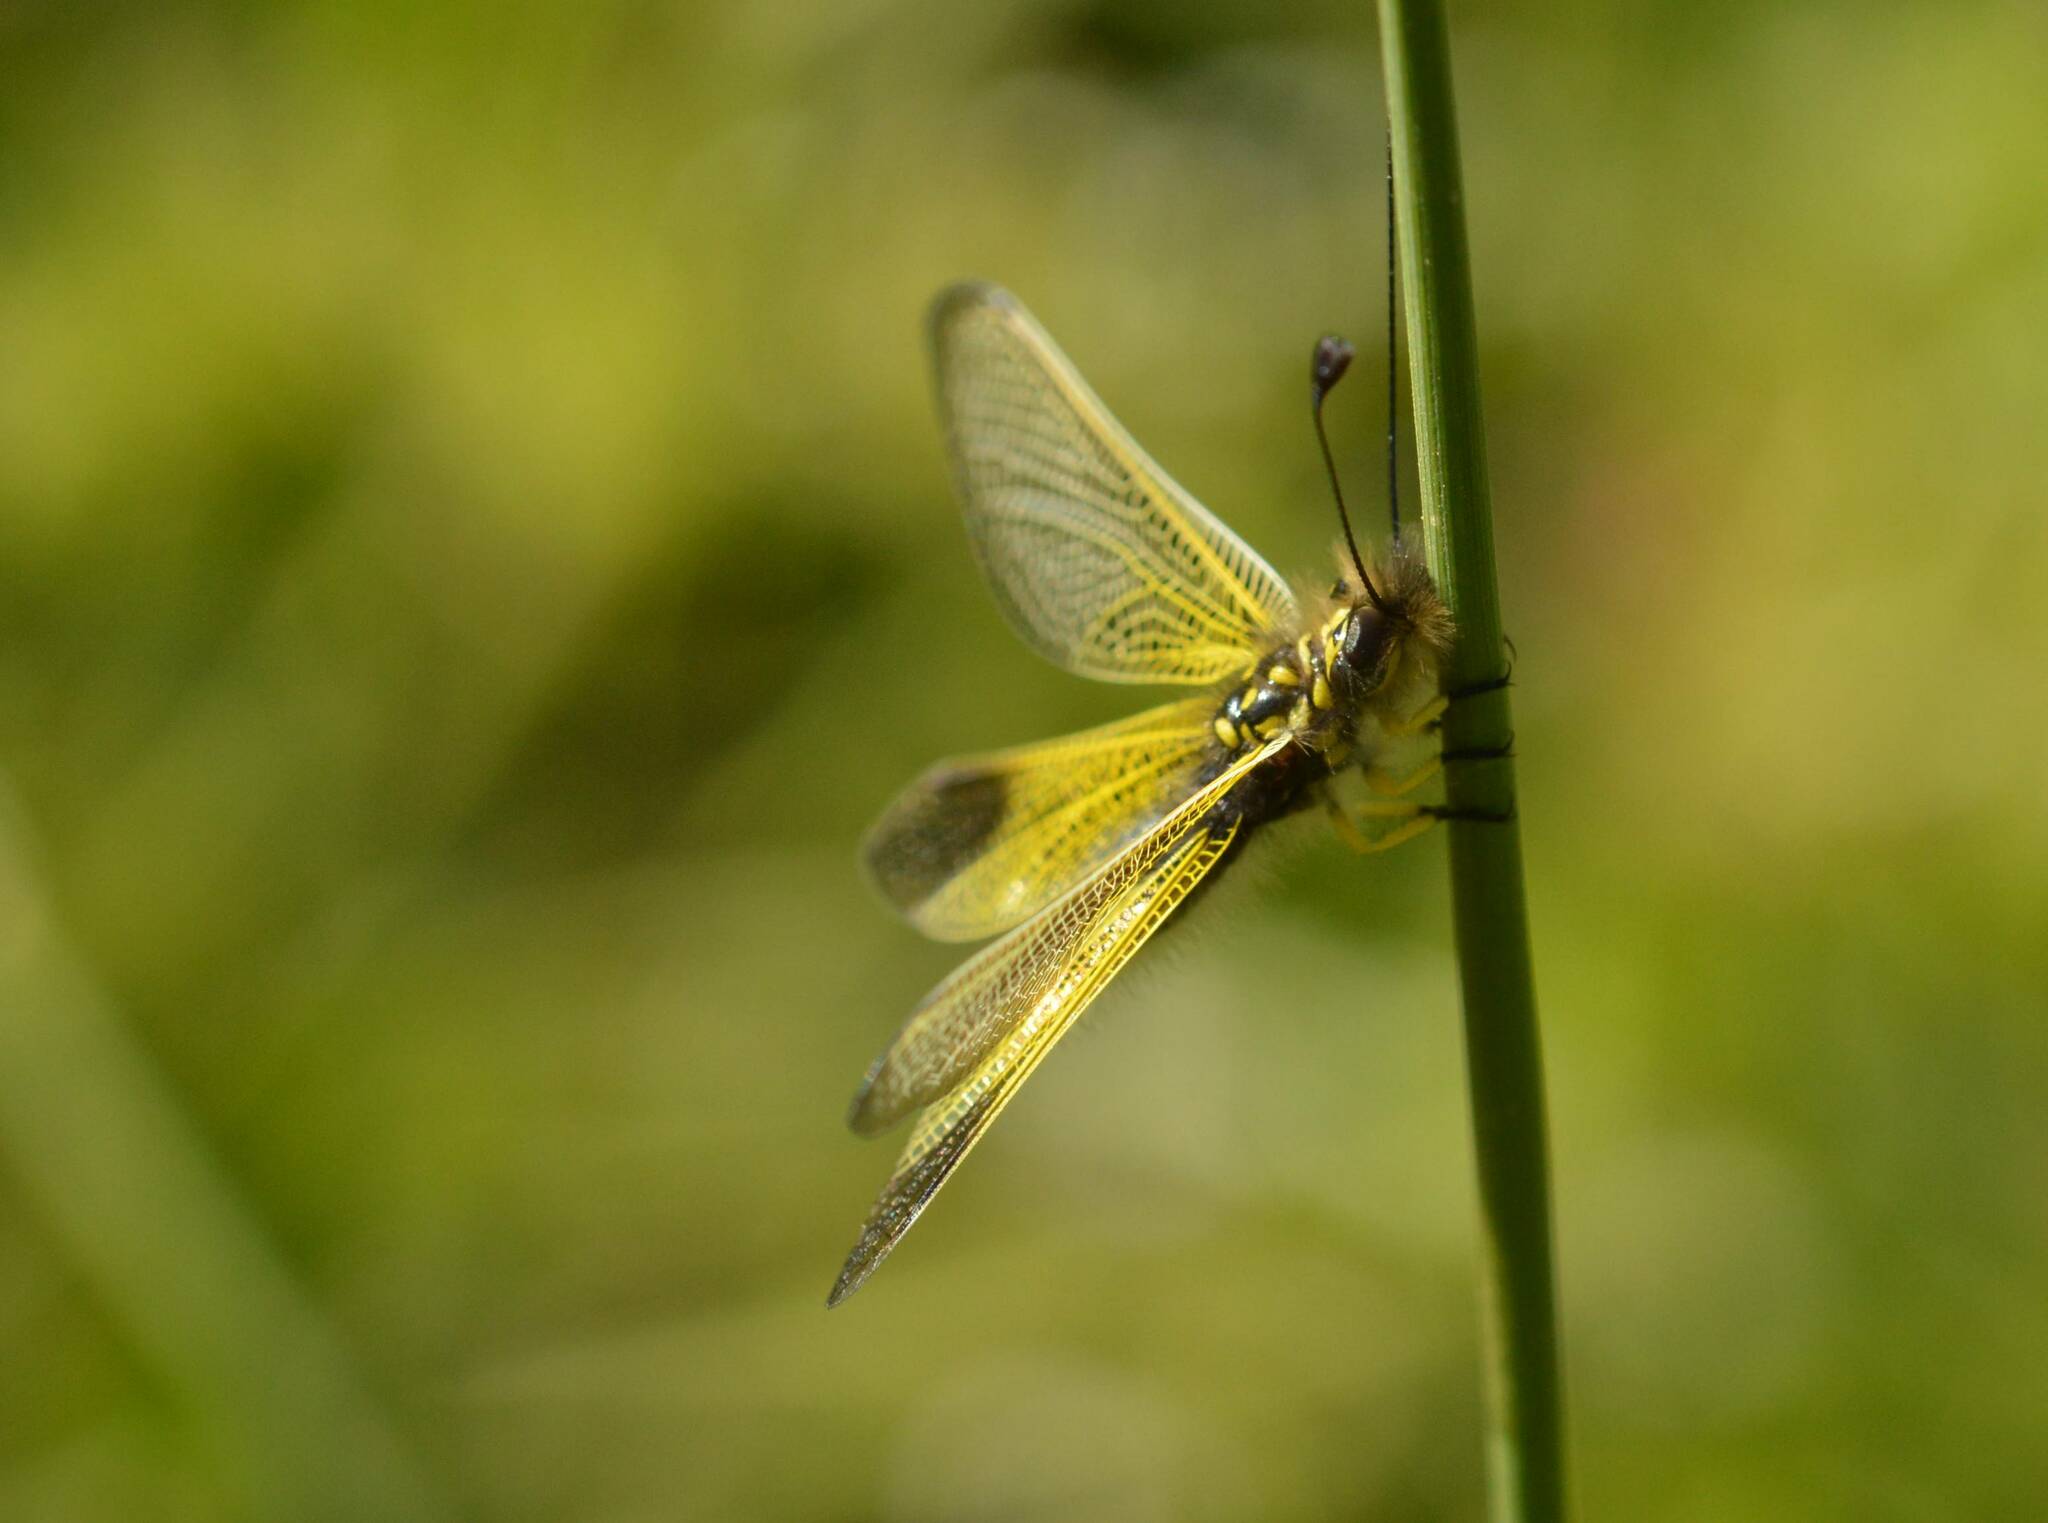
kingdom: Animalia
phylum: Arthropoda
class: Insecta
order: Neuroptera
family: Ascalaphidae
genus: Libelloides
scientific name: Libelloides ictericus
